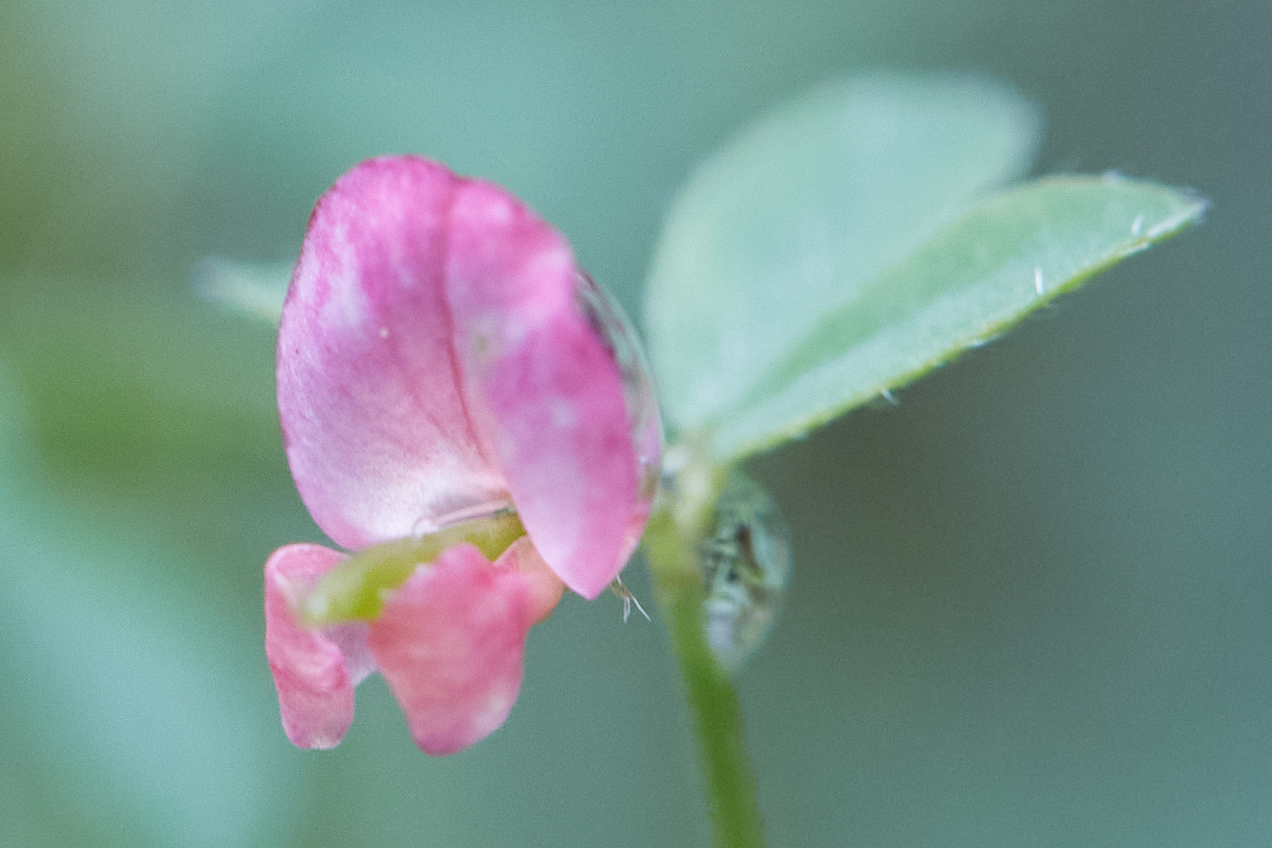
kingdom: Plantae
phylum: Tracheophyta
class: Magnoliopsida
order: Fabales
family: Fabaceae
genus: Acmispon
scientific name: Acmispon parviflorus
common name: Desert deer-vetch
